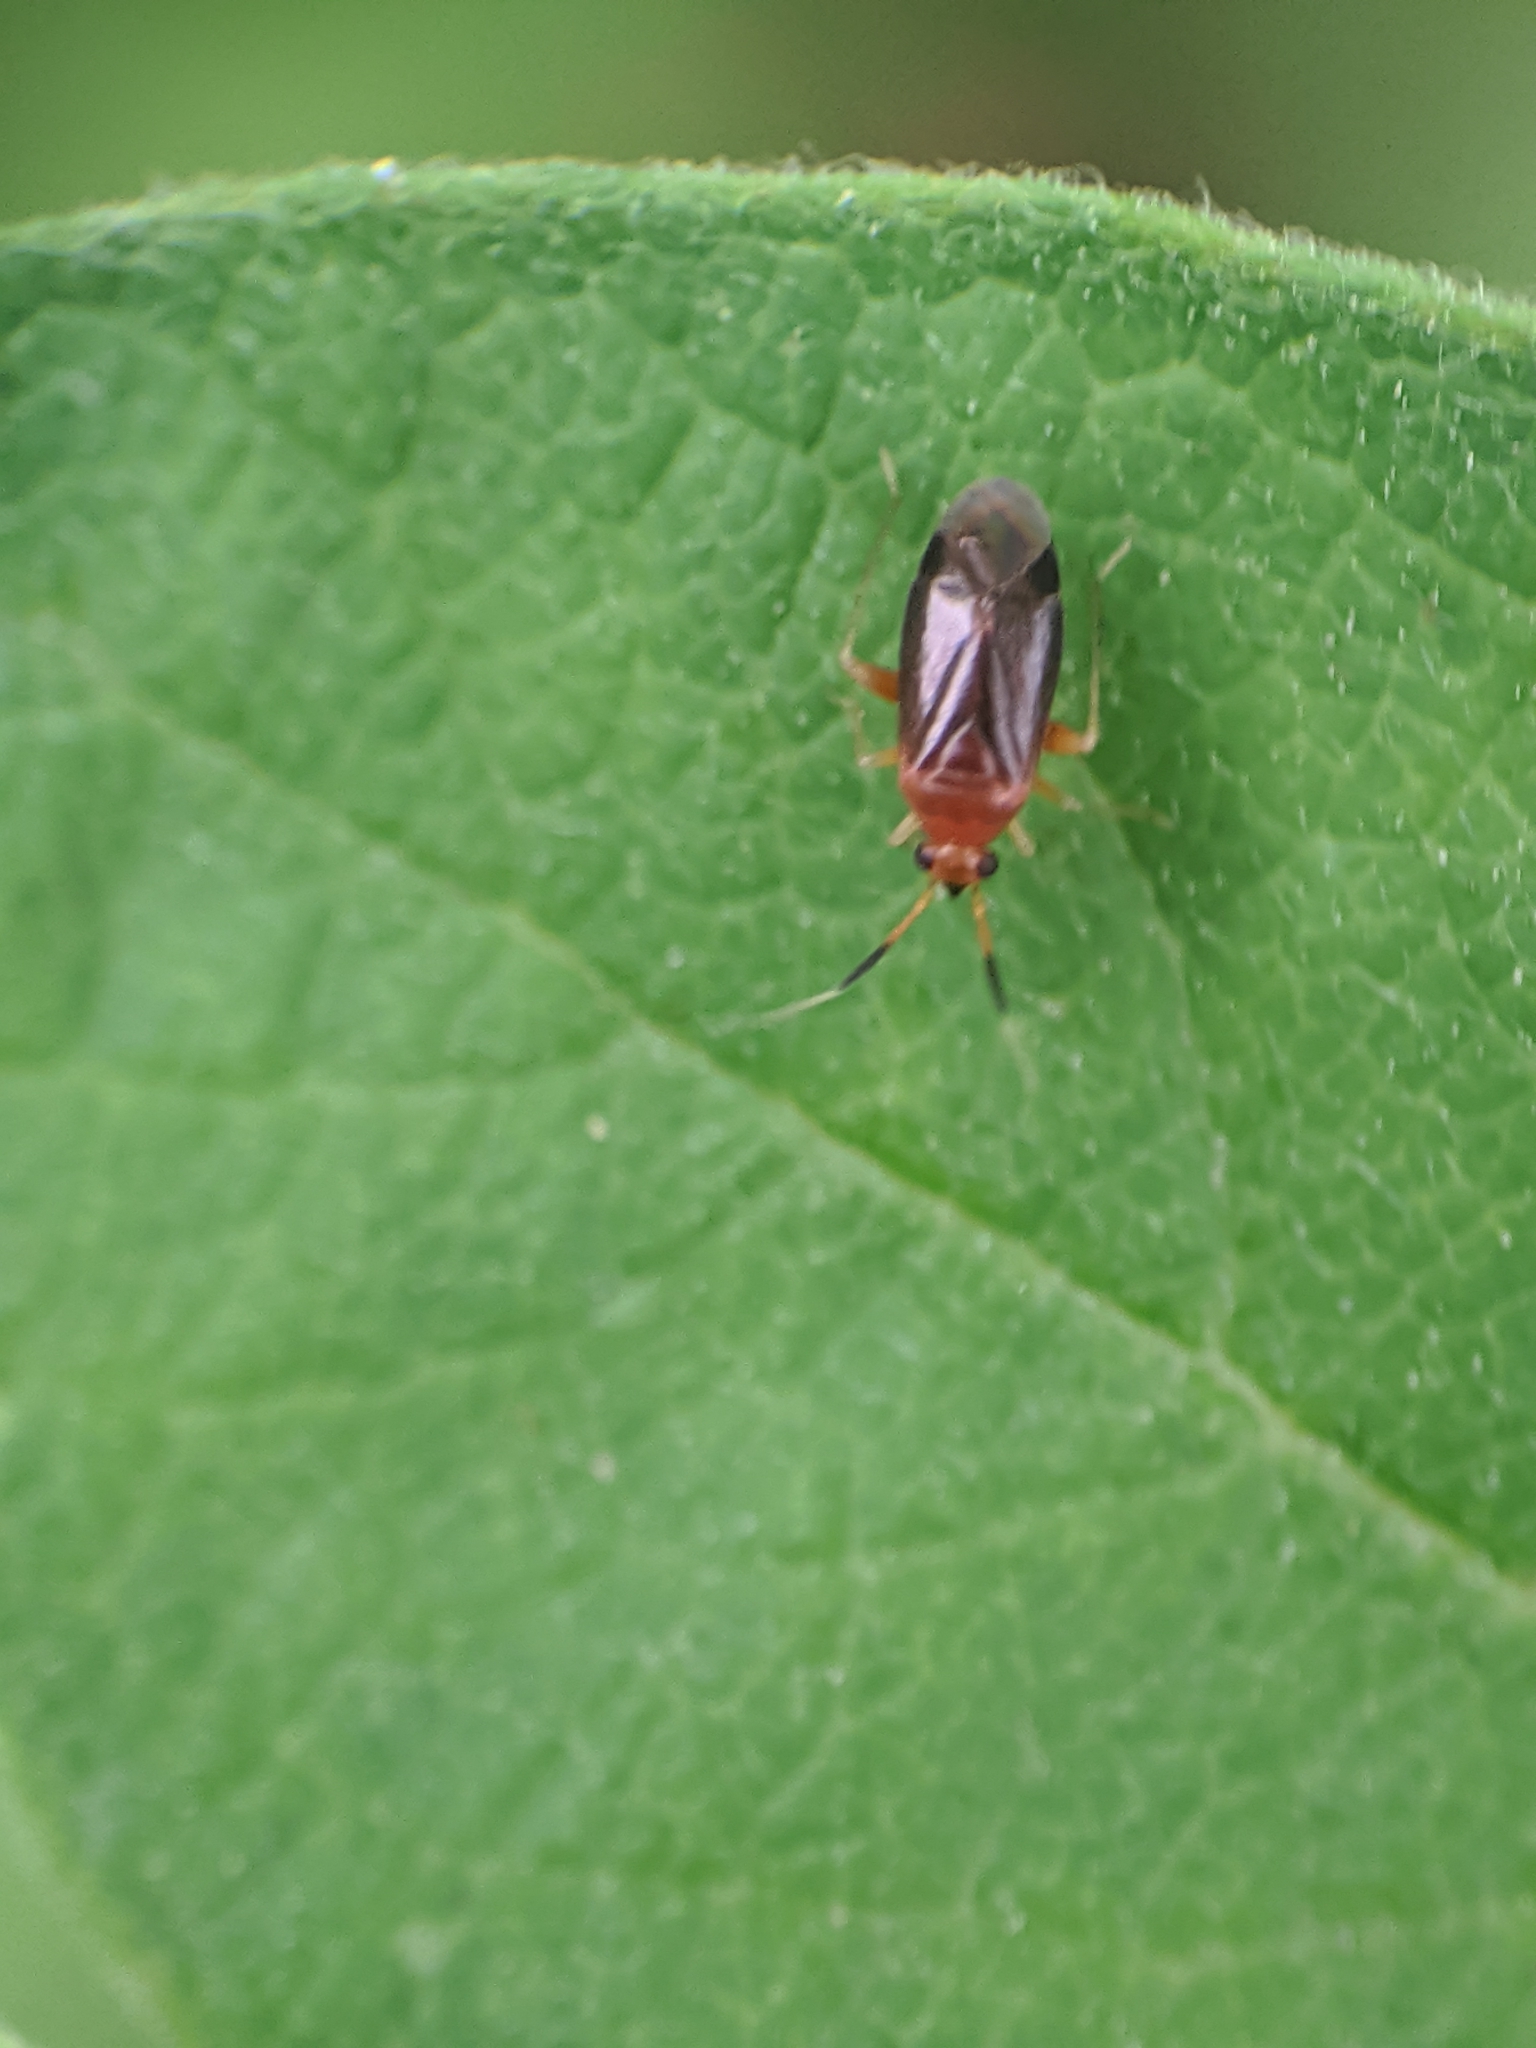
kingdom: Animalia
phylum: Arthropoda
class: Insecta
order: Hemiptera
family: Miridae
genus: Rhinocapsus
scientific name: Rhinocapsus vanduzeei
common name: Azalea plant bug
